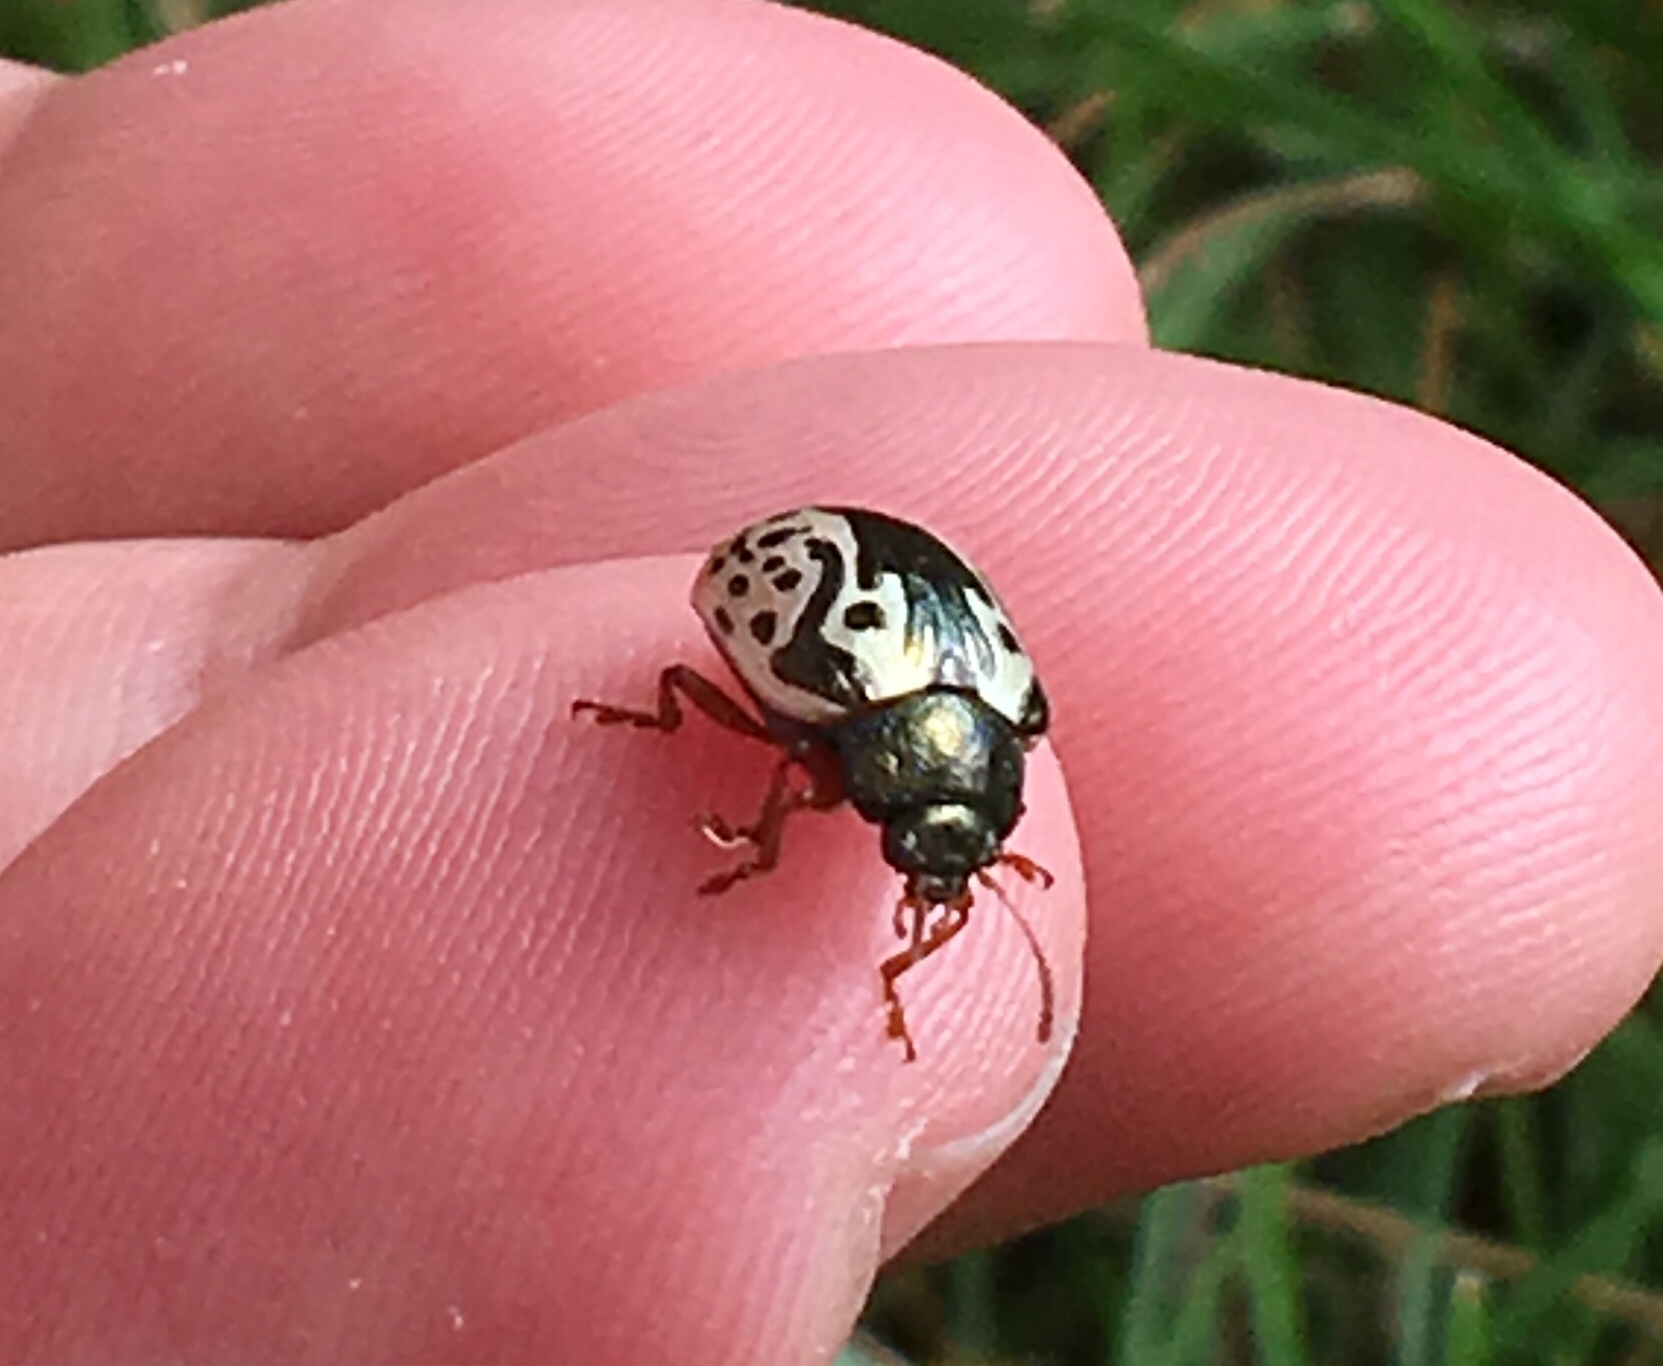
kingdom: Animalia
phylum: Arthropoda
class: Insecta
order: Coleoptera
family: Chrysomelidae
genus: Calligrapha
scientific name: Calligrapha confluens
